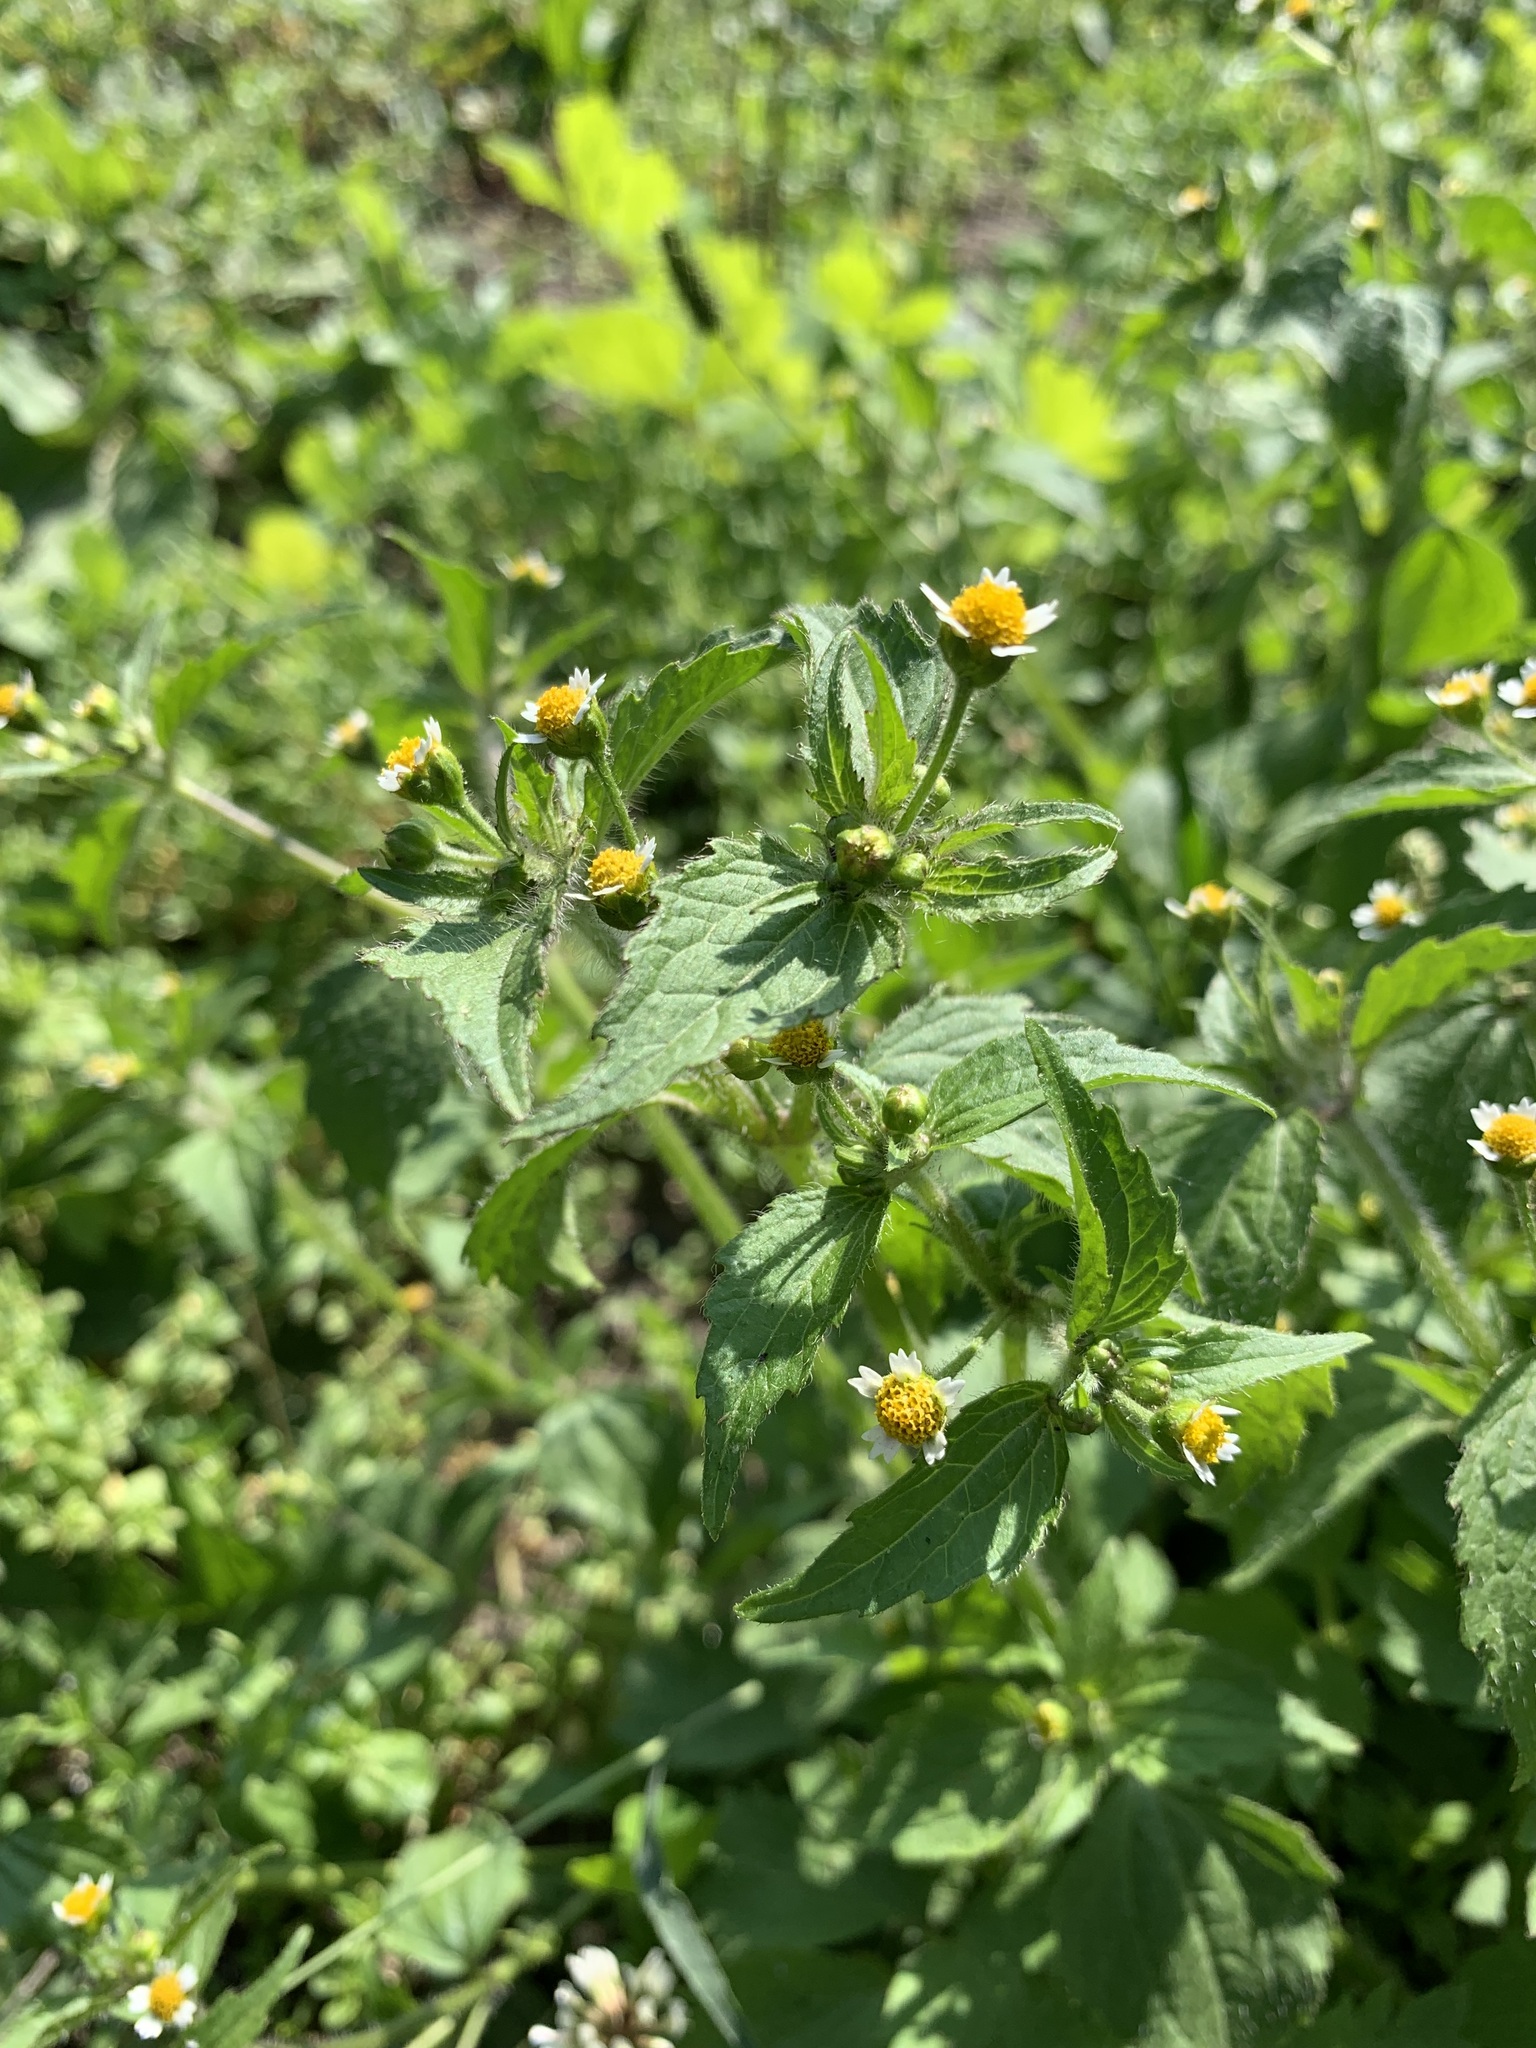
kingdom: Plantae
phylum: Tracheophyta
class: Magnoliopsida
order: Asterales
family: Asteraceae
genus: Galinsoga
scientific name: Galinsoga quadriradiata
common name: Shaggy soldier
